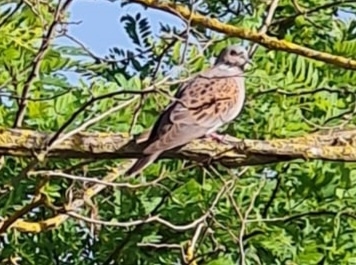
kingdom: Animalia
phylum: Chordata
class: Aves
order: Columbiformes
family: Columbidae
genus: Streptopelia
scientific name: Streptopelia turtur
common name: European turtle dove
